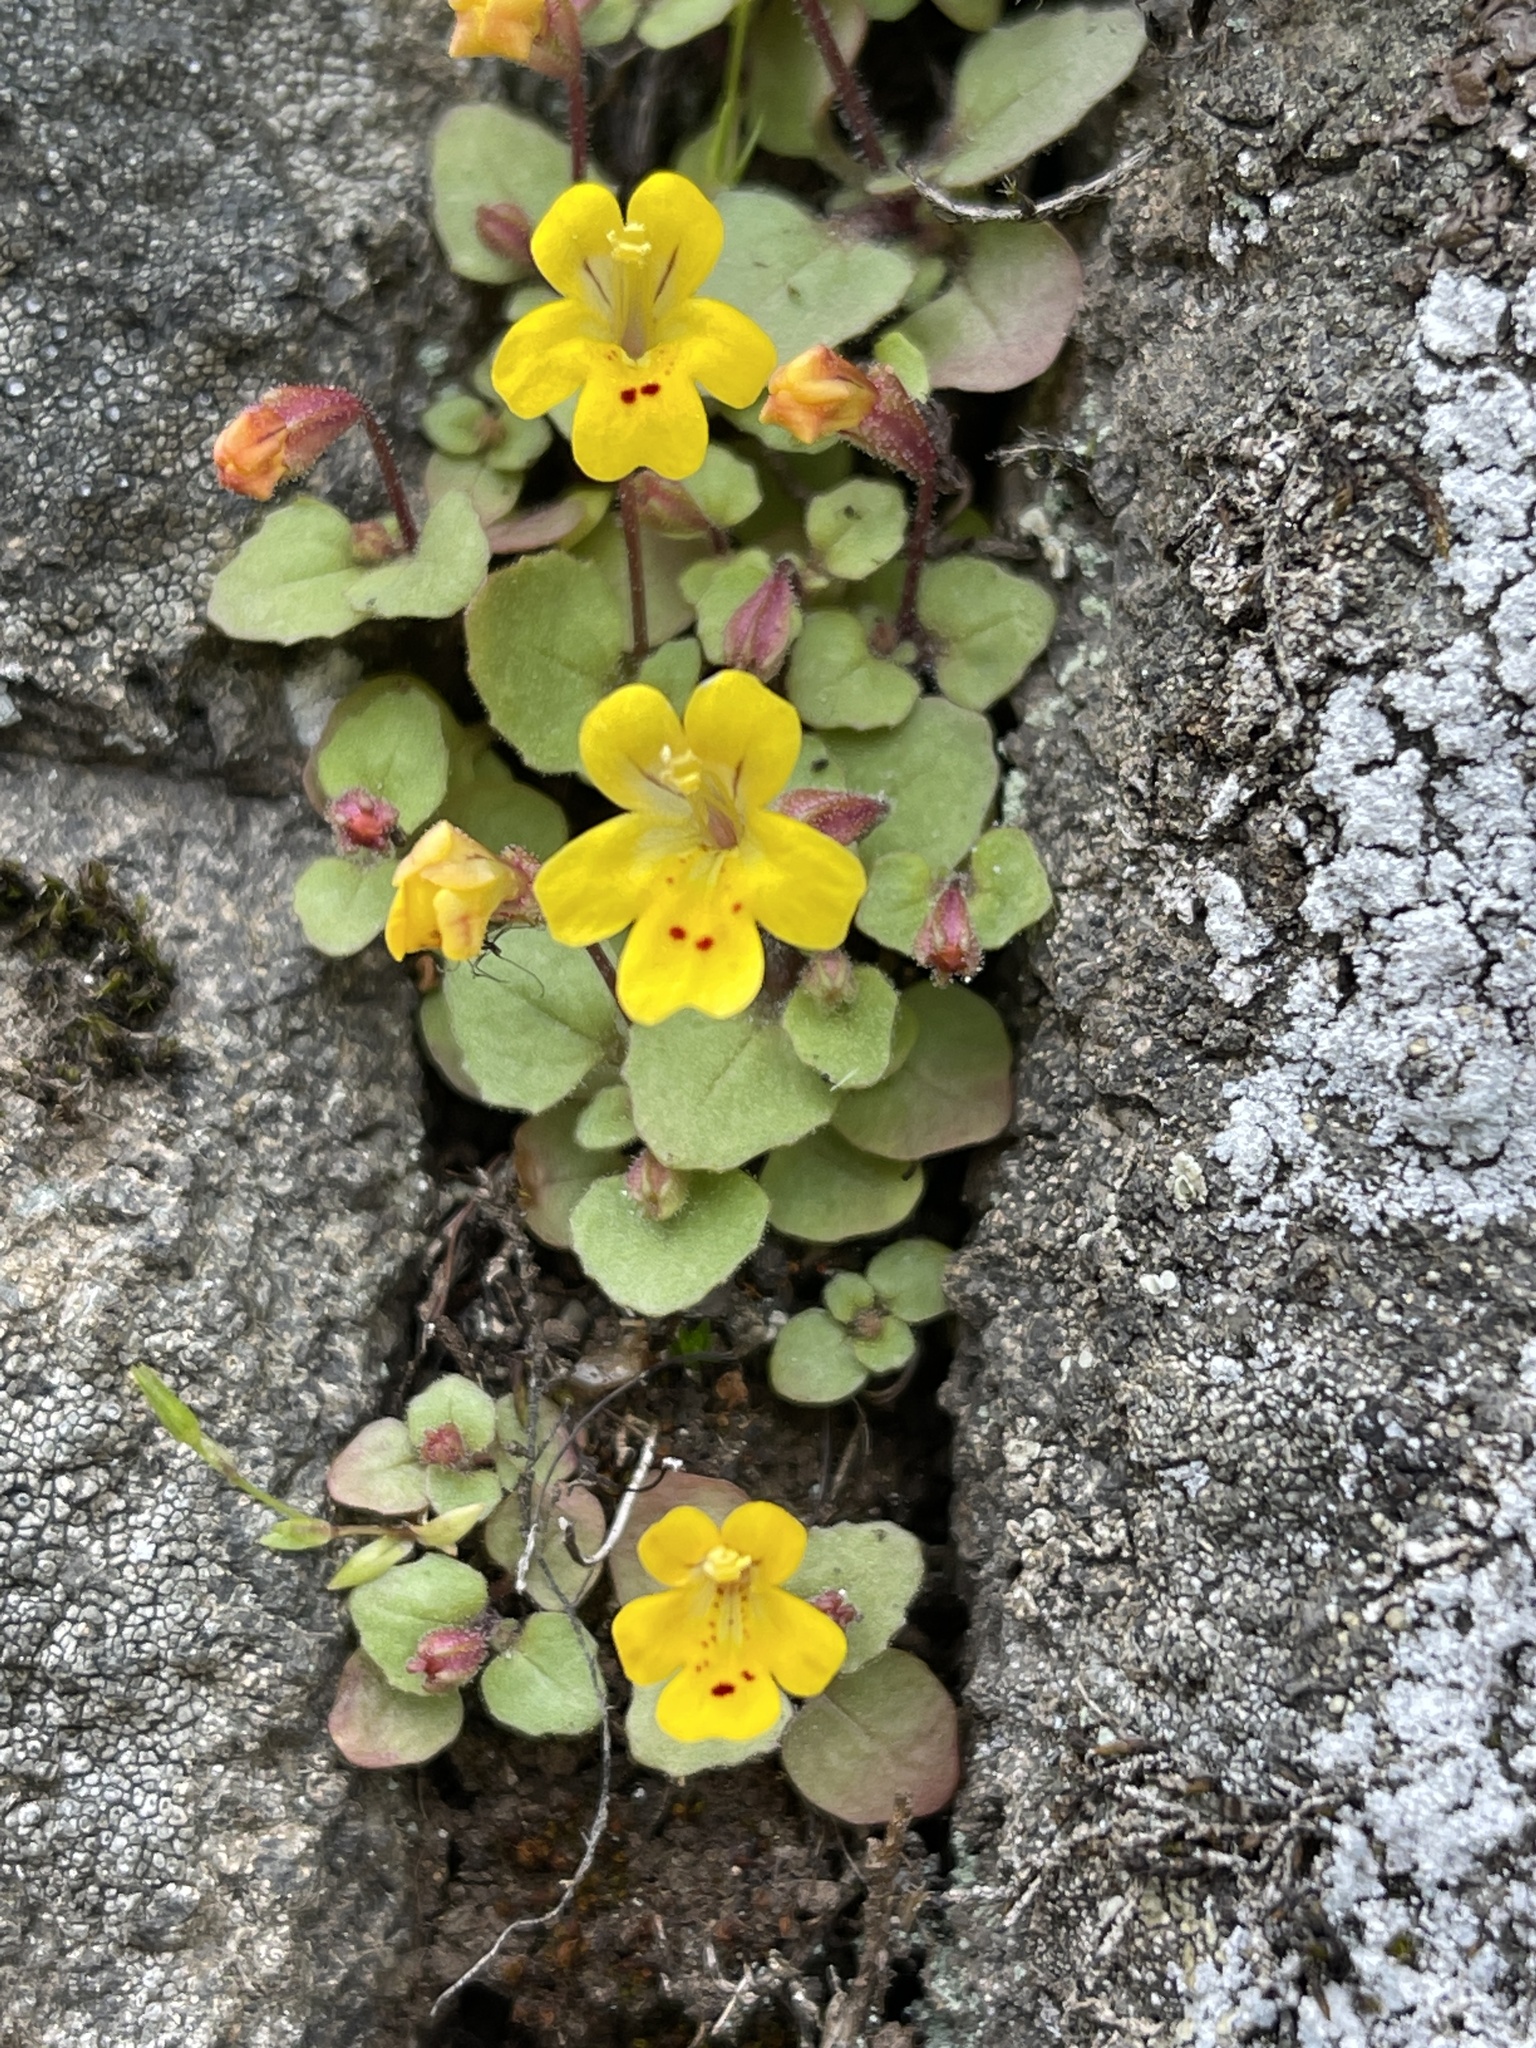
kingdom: Plantae
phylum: Tracheophyta
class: Magnoliopsida
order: Lamiales
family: Phrymaceae
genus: Erythranthe
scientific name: Erythranthe alsinoides
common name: Chickweed monkeyflower
